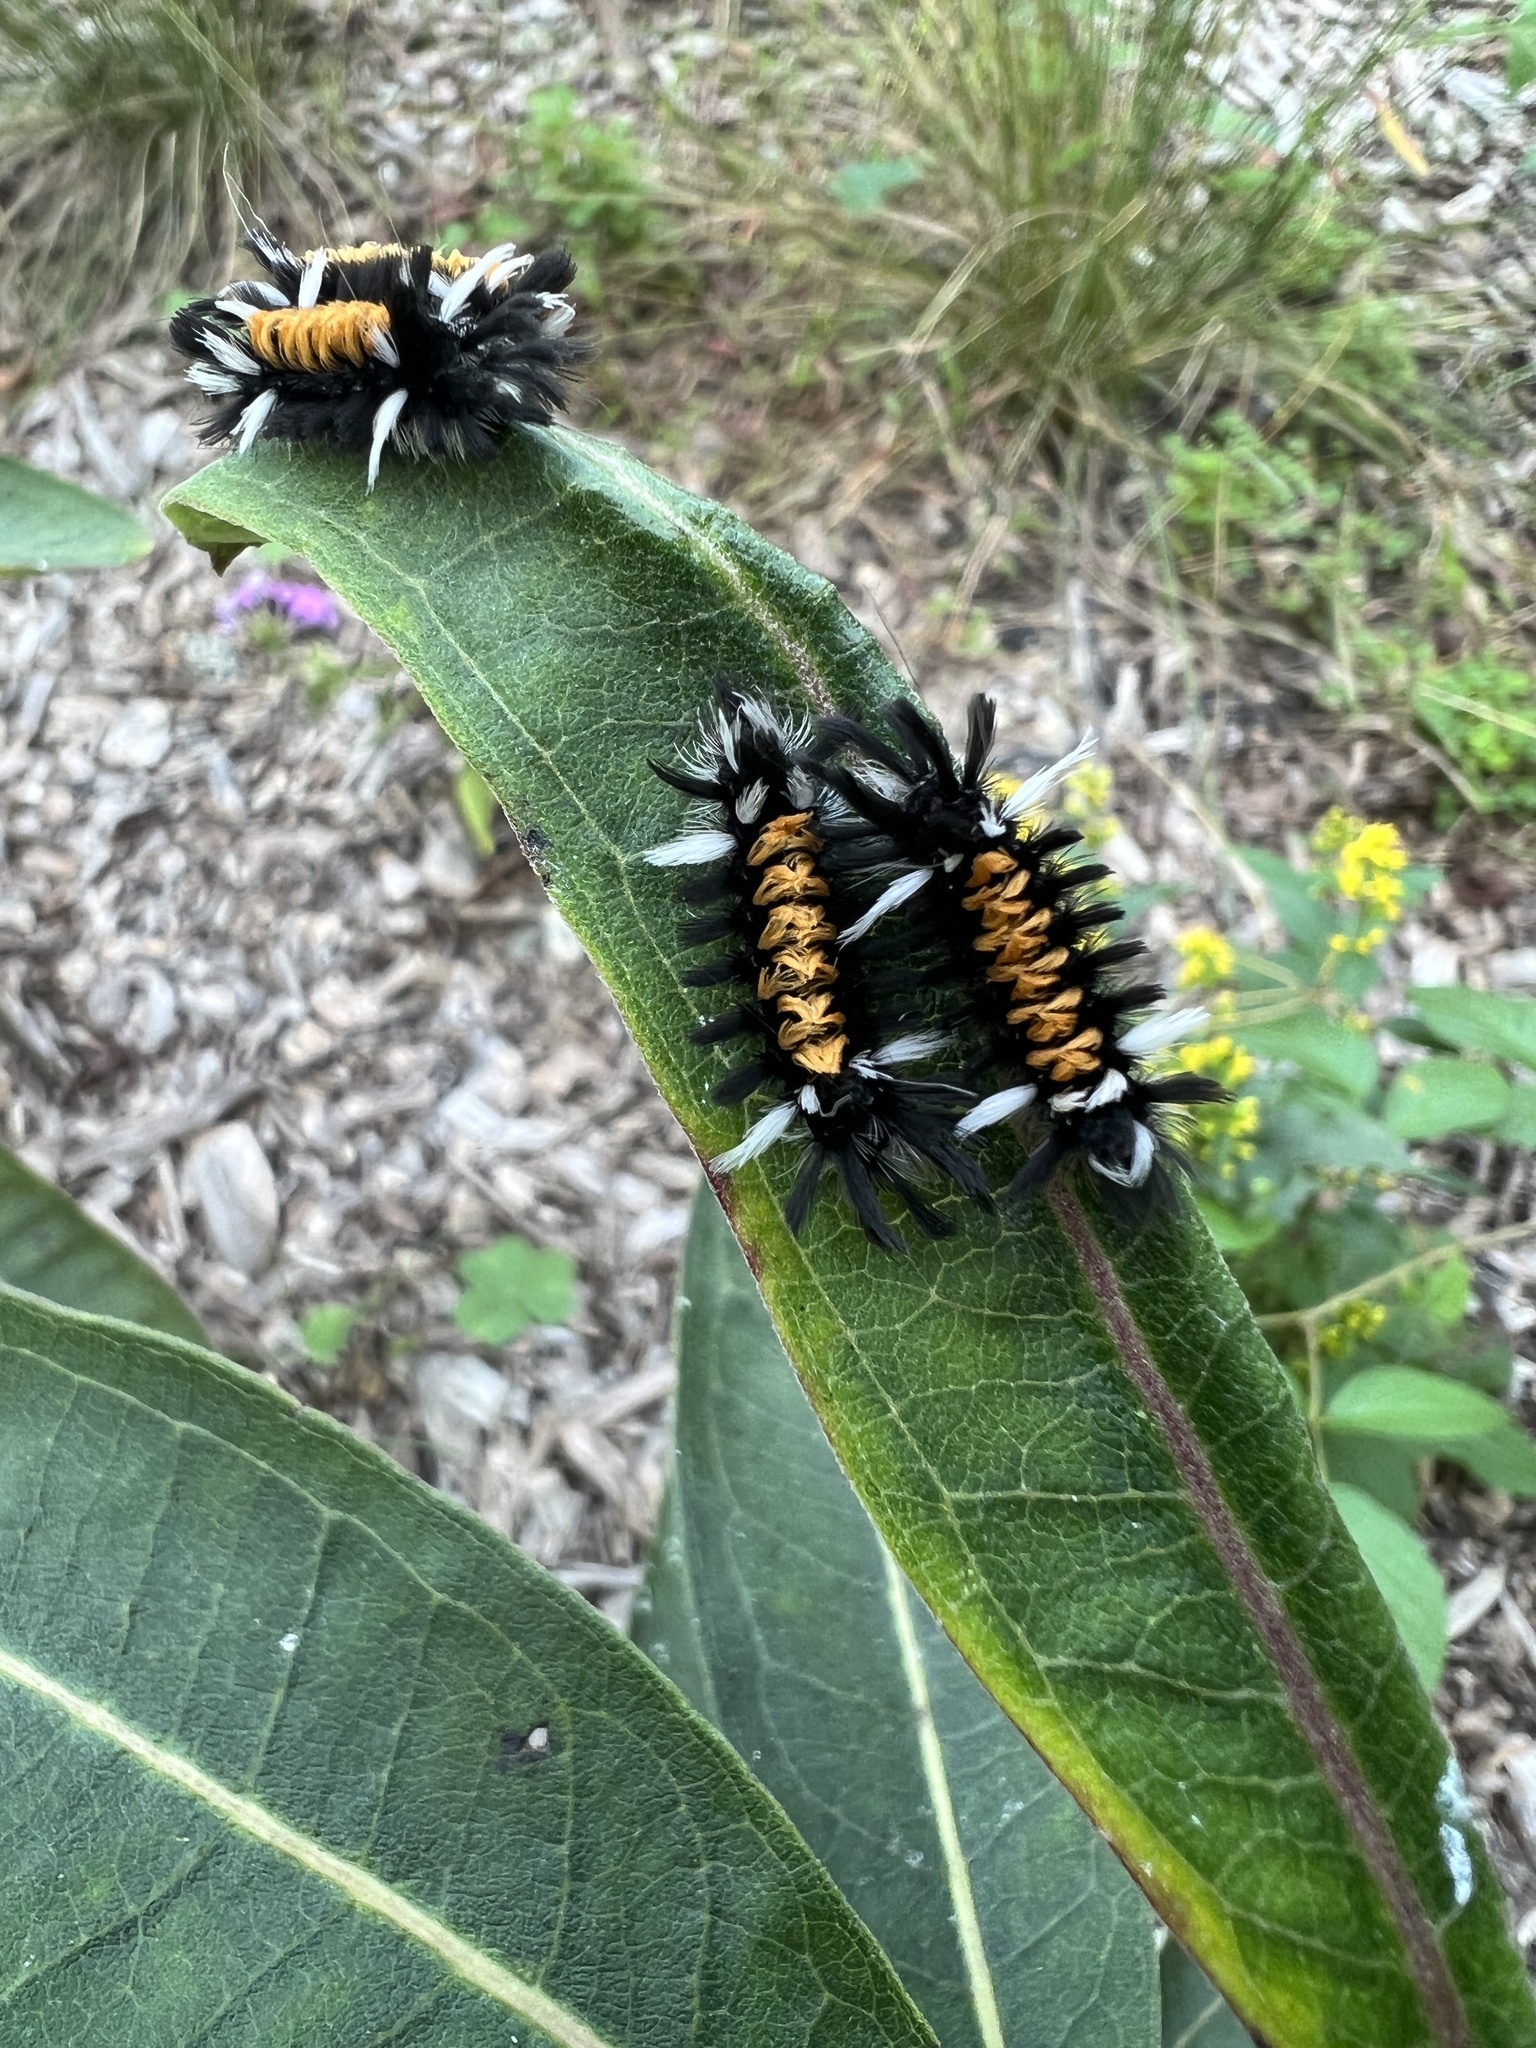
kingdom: Animalia
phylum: Arthropoda
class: Insecta
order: Lepidoptera
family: Erebidae
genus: Euchaetes
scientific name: Euchaetes egle
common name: Milkweed tussock moth
